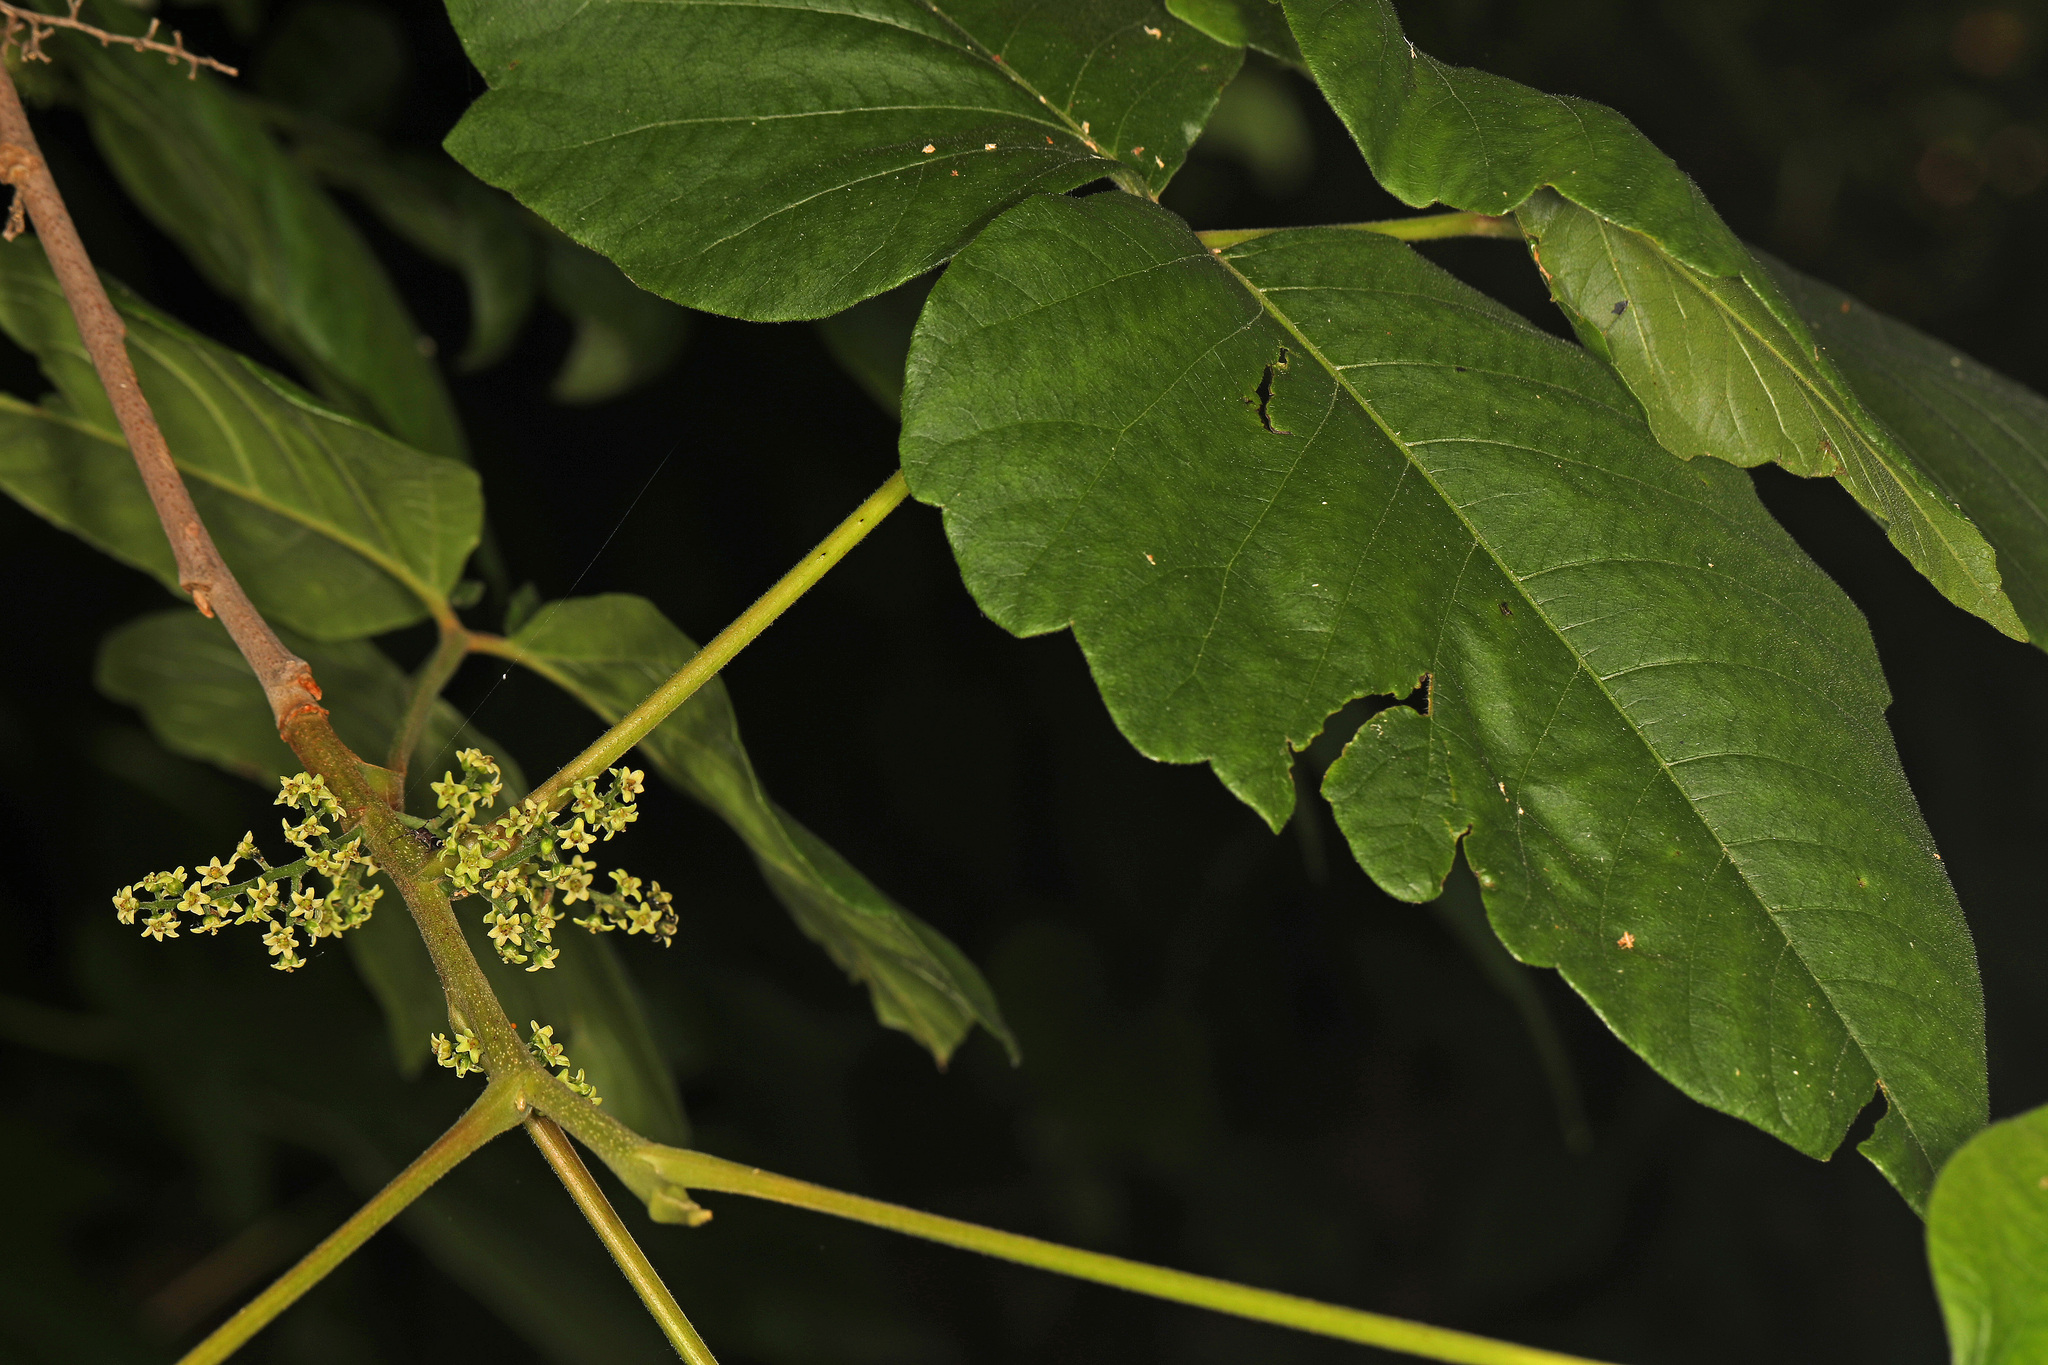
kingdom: Plantae
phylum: Tracheophyta
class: Magnoliopsida
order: Sapindales
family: Anacardiaceae
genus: Toxicodendron
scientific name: Toxicodendron radicans
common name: Poison ivy
